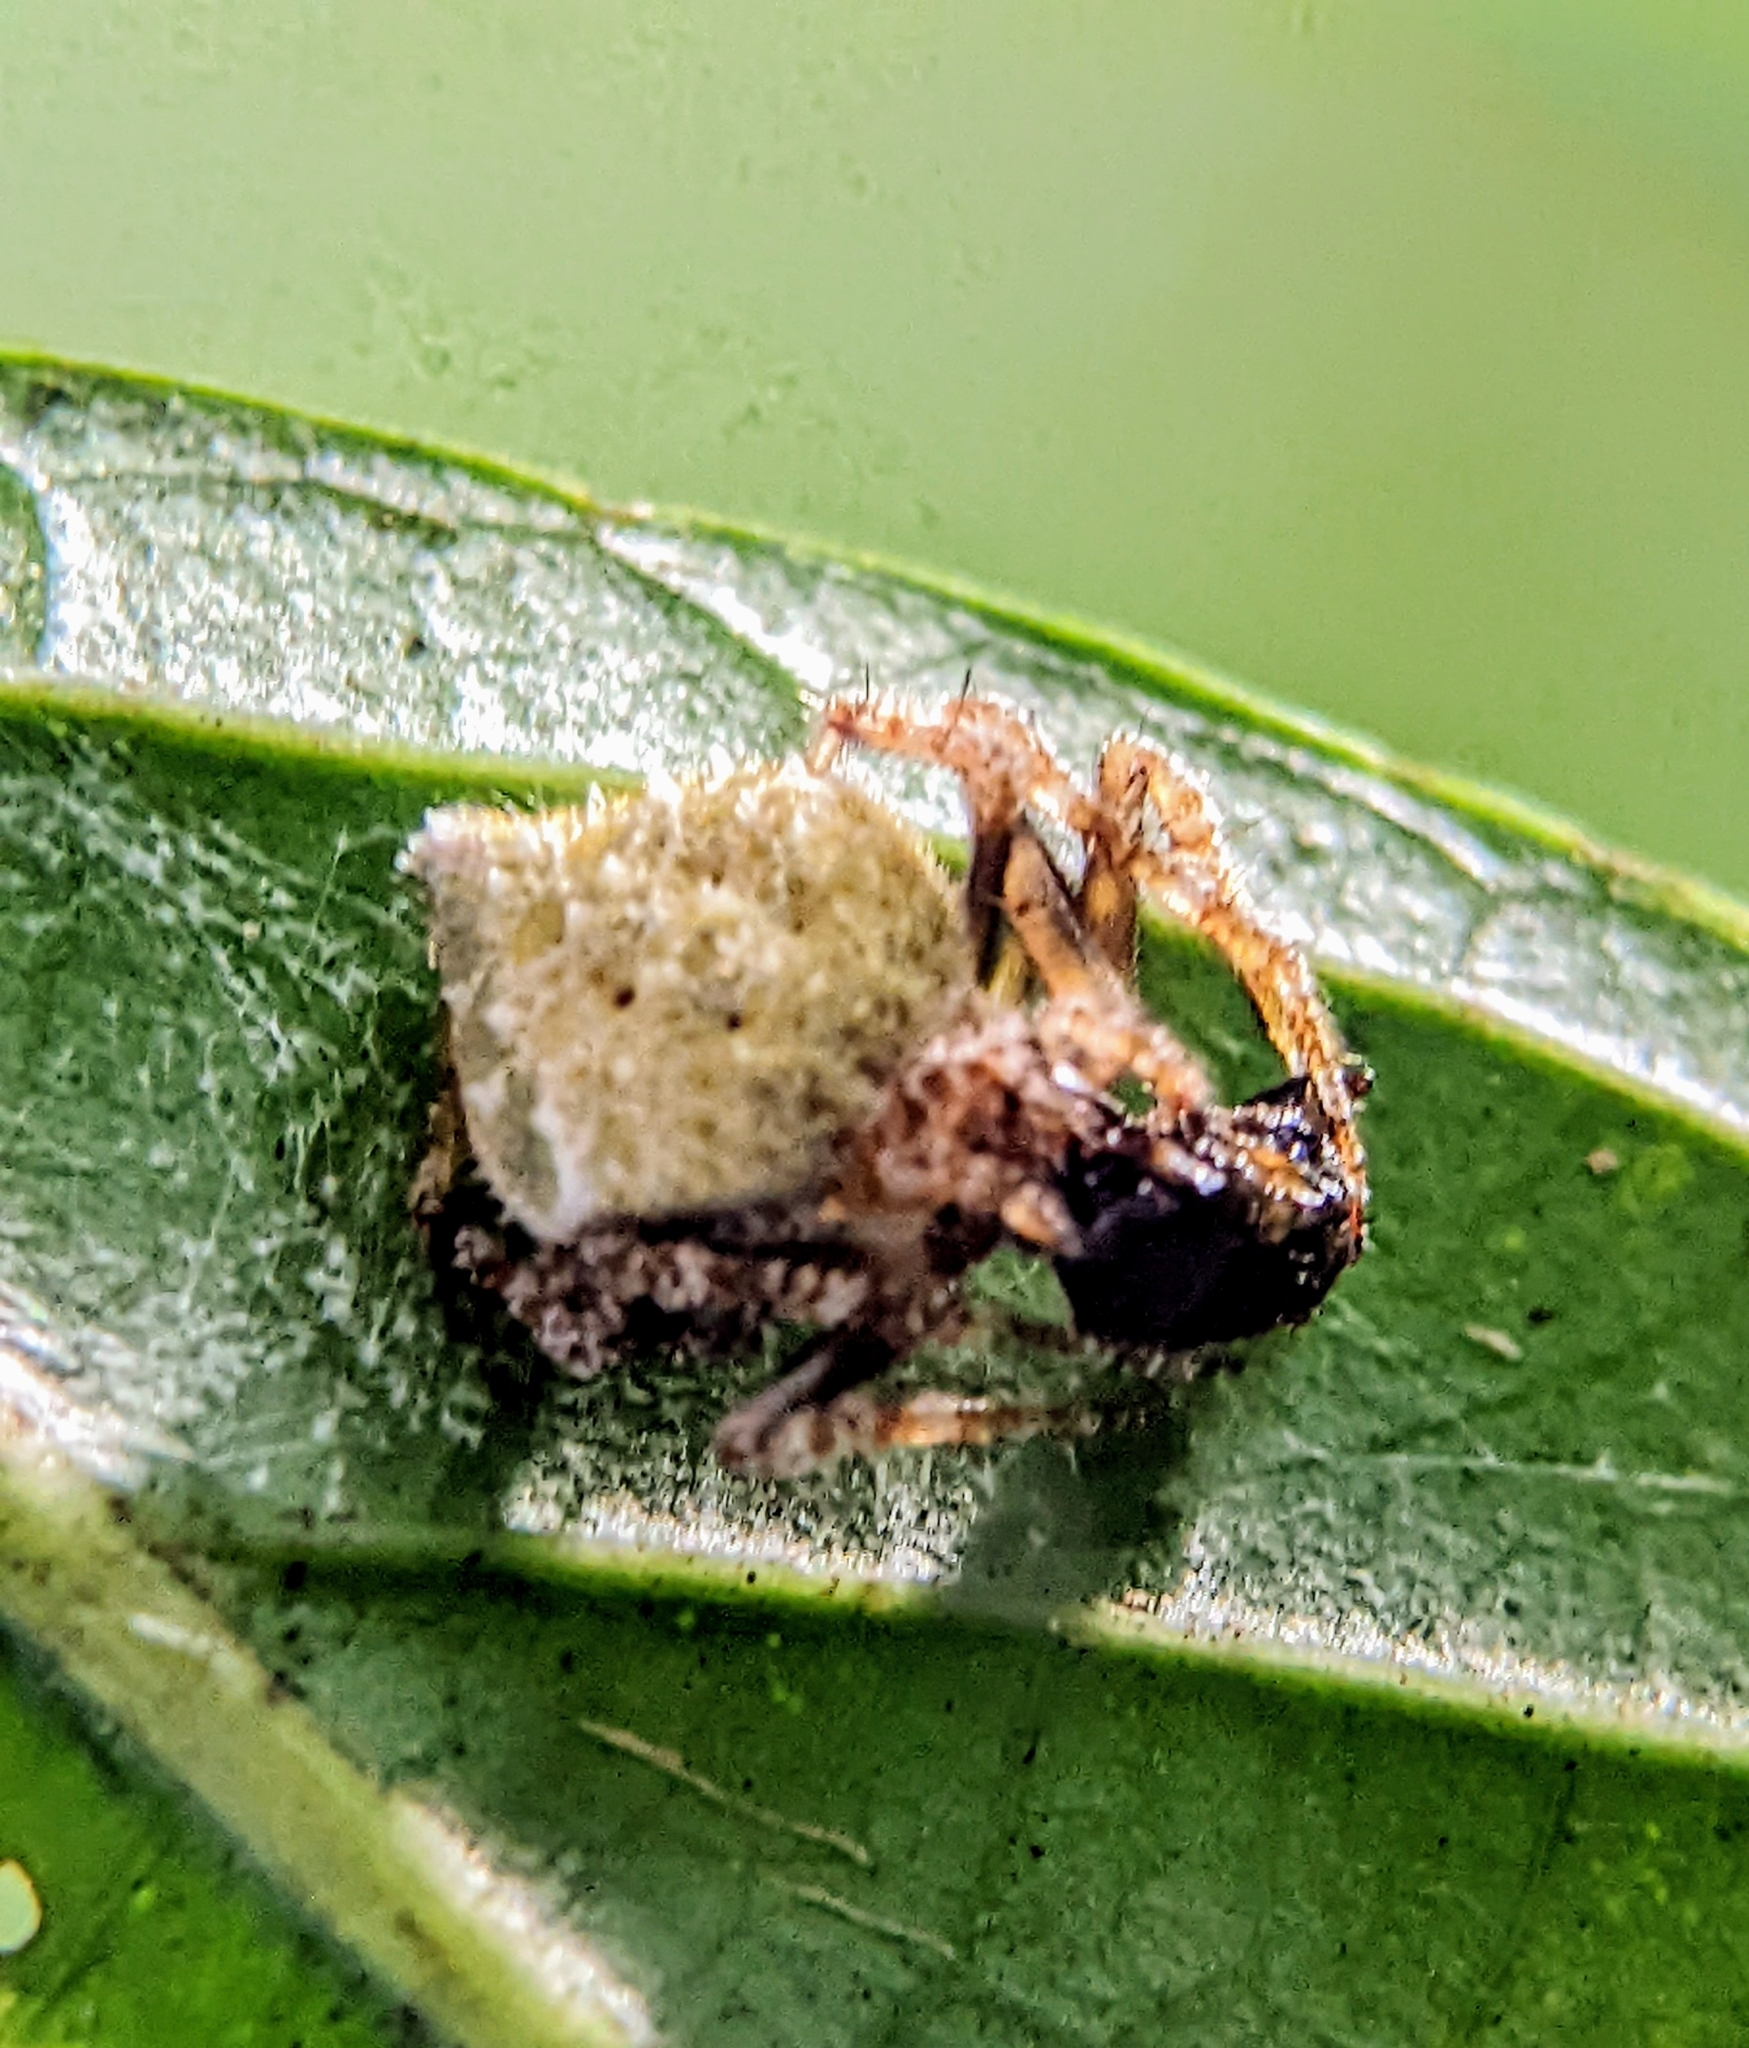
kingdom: Animalia
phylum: Arthropoda
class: Arachnida
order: Araneae
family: Araneidae
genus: Eriovixia
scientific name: Eriovixia laglaizei
